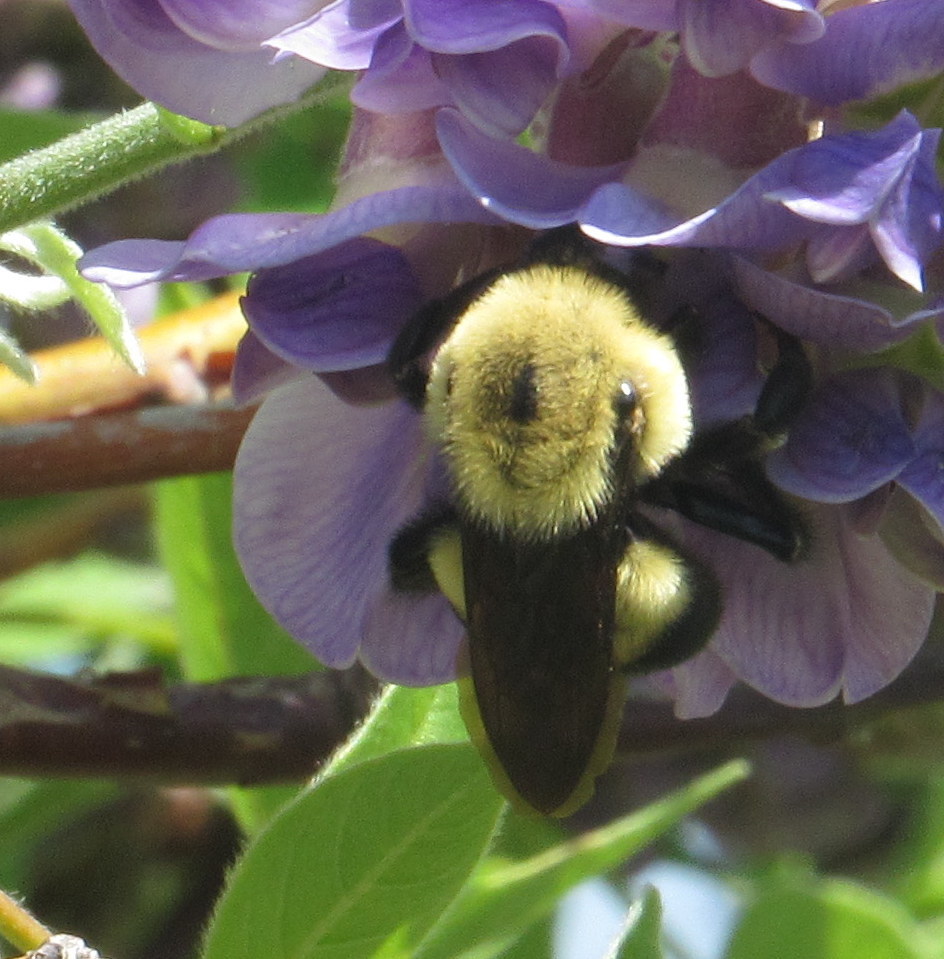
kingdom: Animalia
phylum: Arthropoda
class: Insecta
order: Hymenoptera
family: Apidae
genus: Bombus
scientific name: Bombus griseocollis
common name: Brown-belted bumble bee
